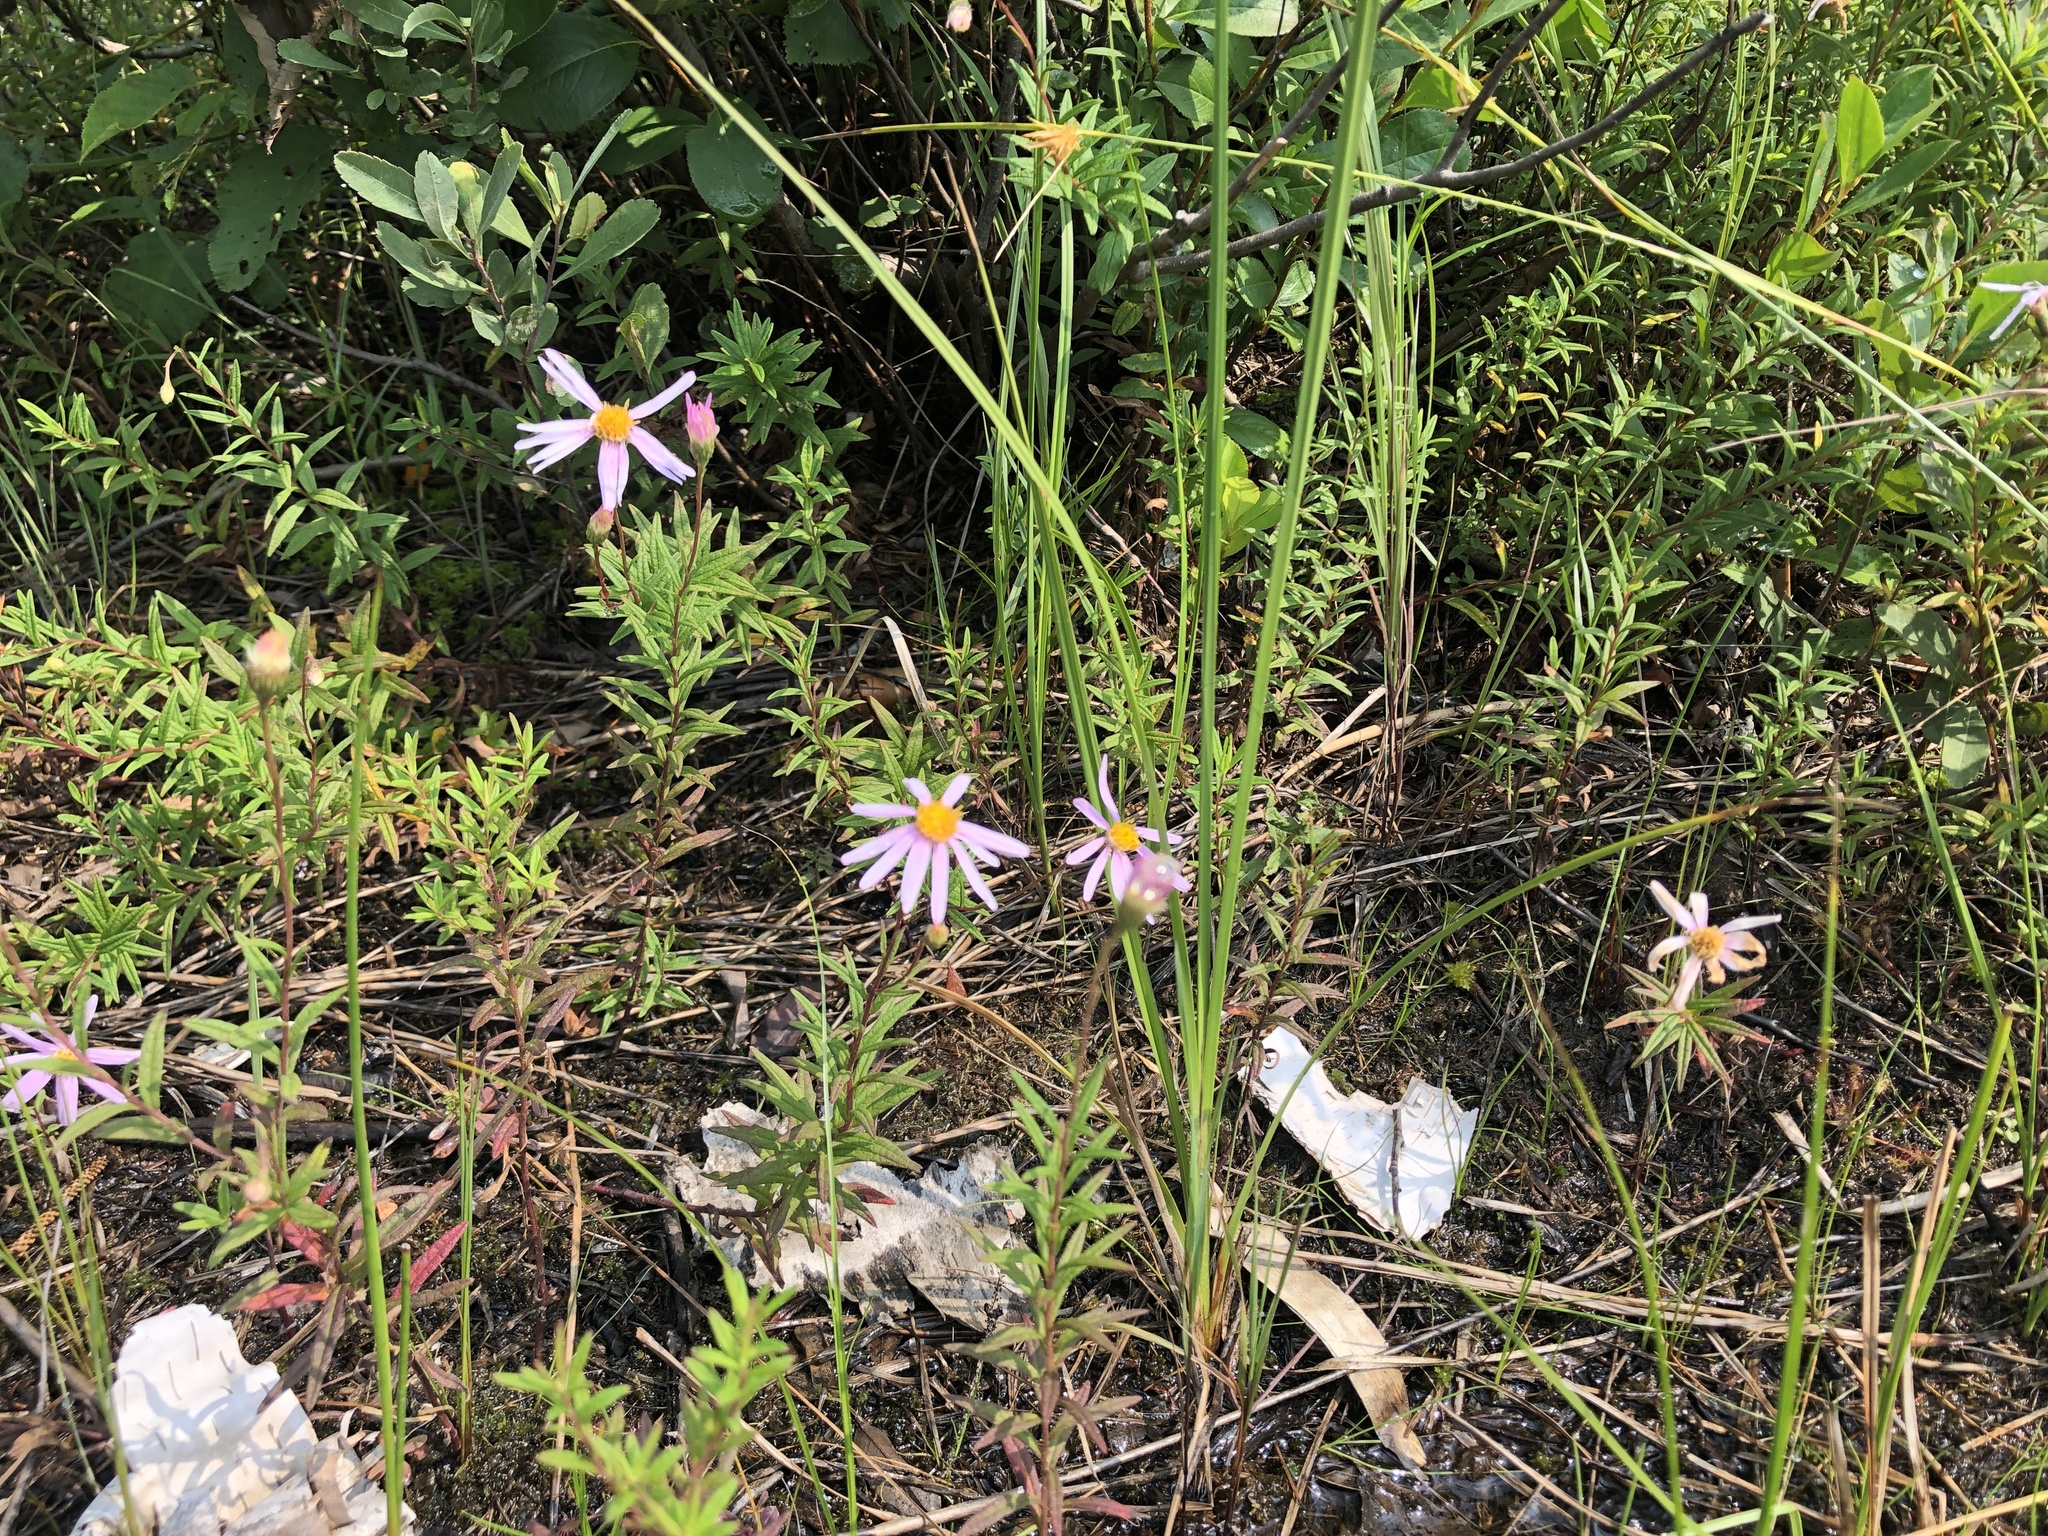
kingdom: Plantae
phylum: Tracheophyta
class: Magnoliopsida
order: Asterales
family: Asteraceae
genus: Oclemena
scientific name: Oclemena nemoralis
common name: Bog aster
